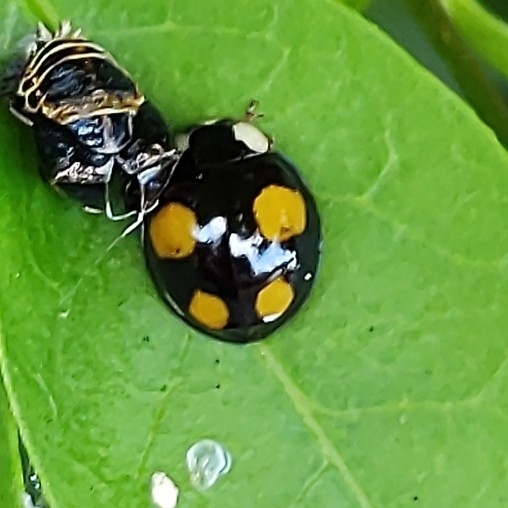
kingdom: Animalia
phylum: Arthropoda
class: Insecta
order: Coleoptera
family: Coccinellidae
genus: Harmonia
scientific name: Harmonia axyridis
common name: Harlequin ladybird
